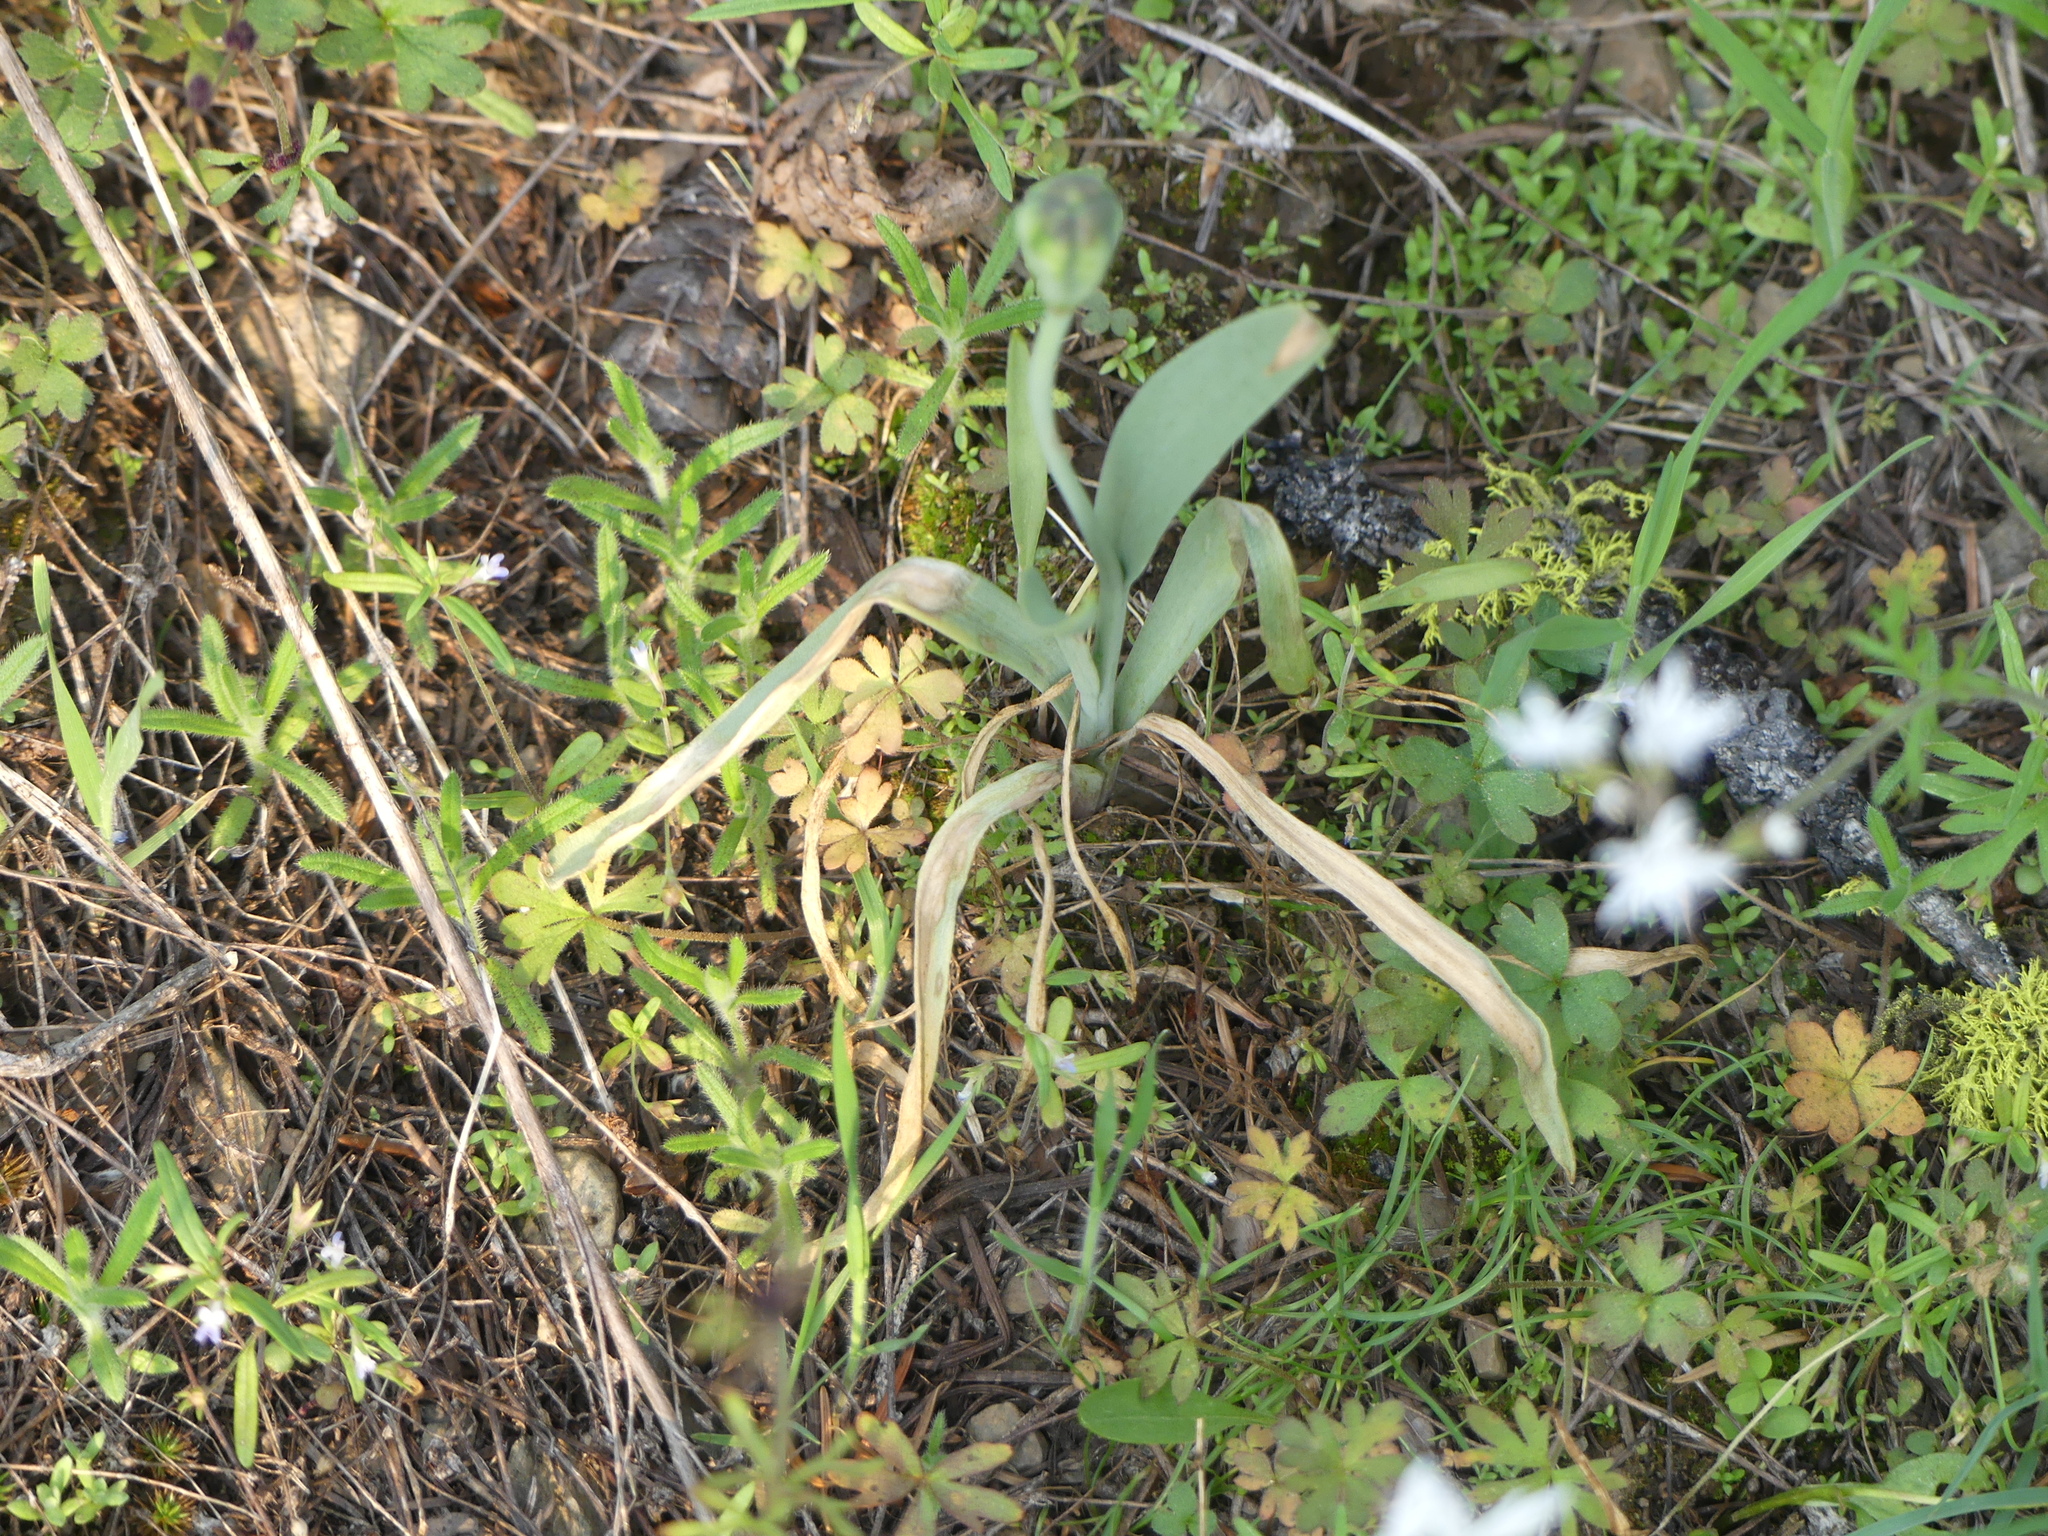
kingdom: Plantae
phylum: Tracheophyta
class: Liliopsida
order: Liliales
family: Liliaceae
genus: Fritillaria
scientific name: Fritillaria pudica
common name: Yellow fritillary
